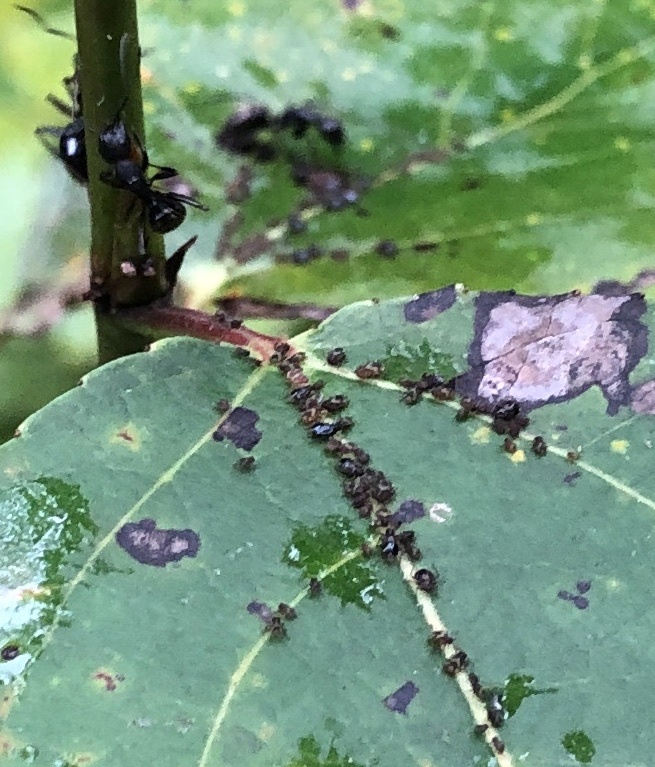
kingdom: Animalia
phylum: Arthropoda
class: Insecta
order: Hemiptera
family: Aphididae
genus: Chaitophorus
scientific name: Chaitophorus populicola
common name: Smokywinged poplar aphid
